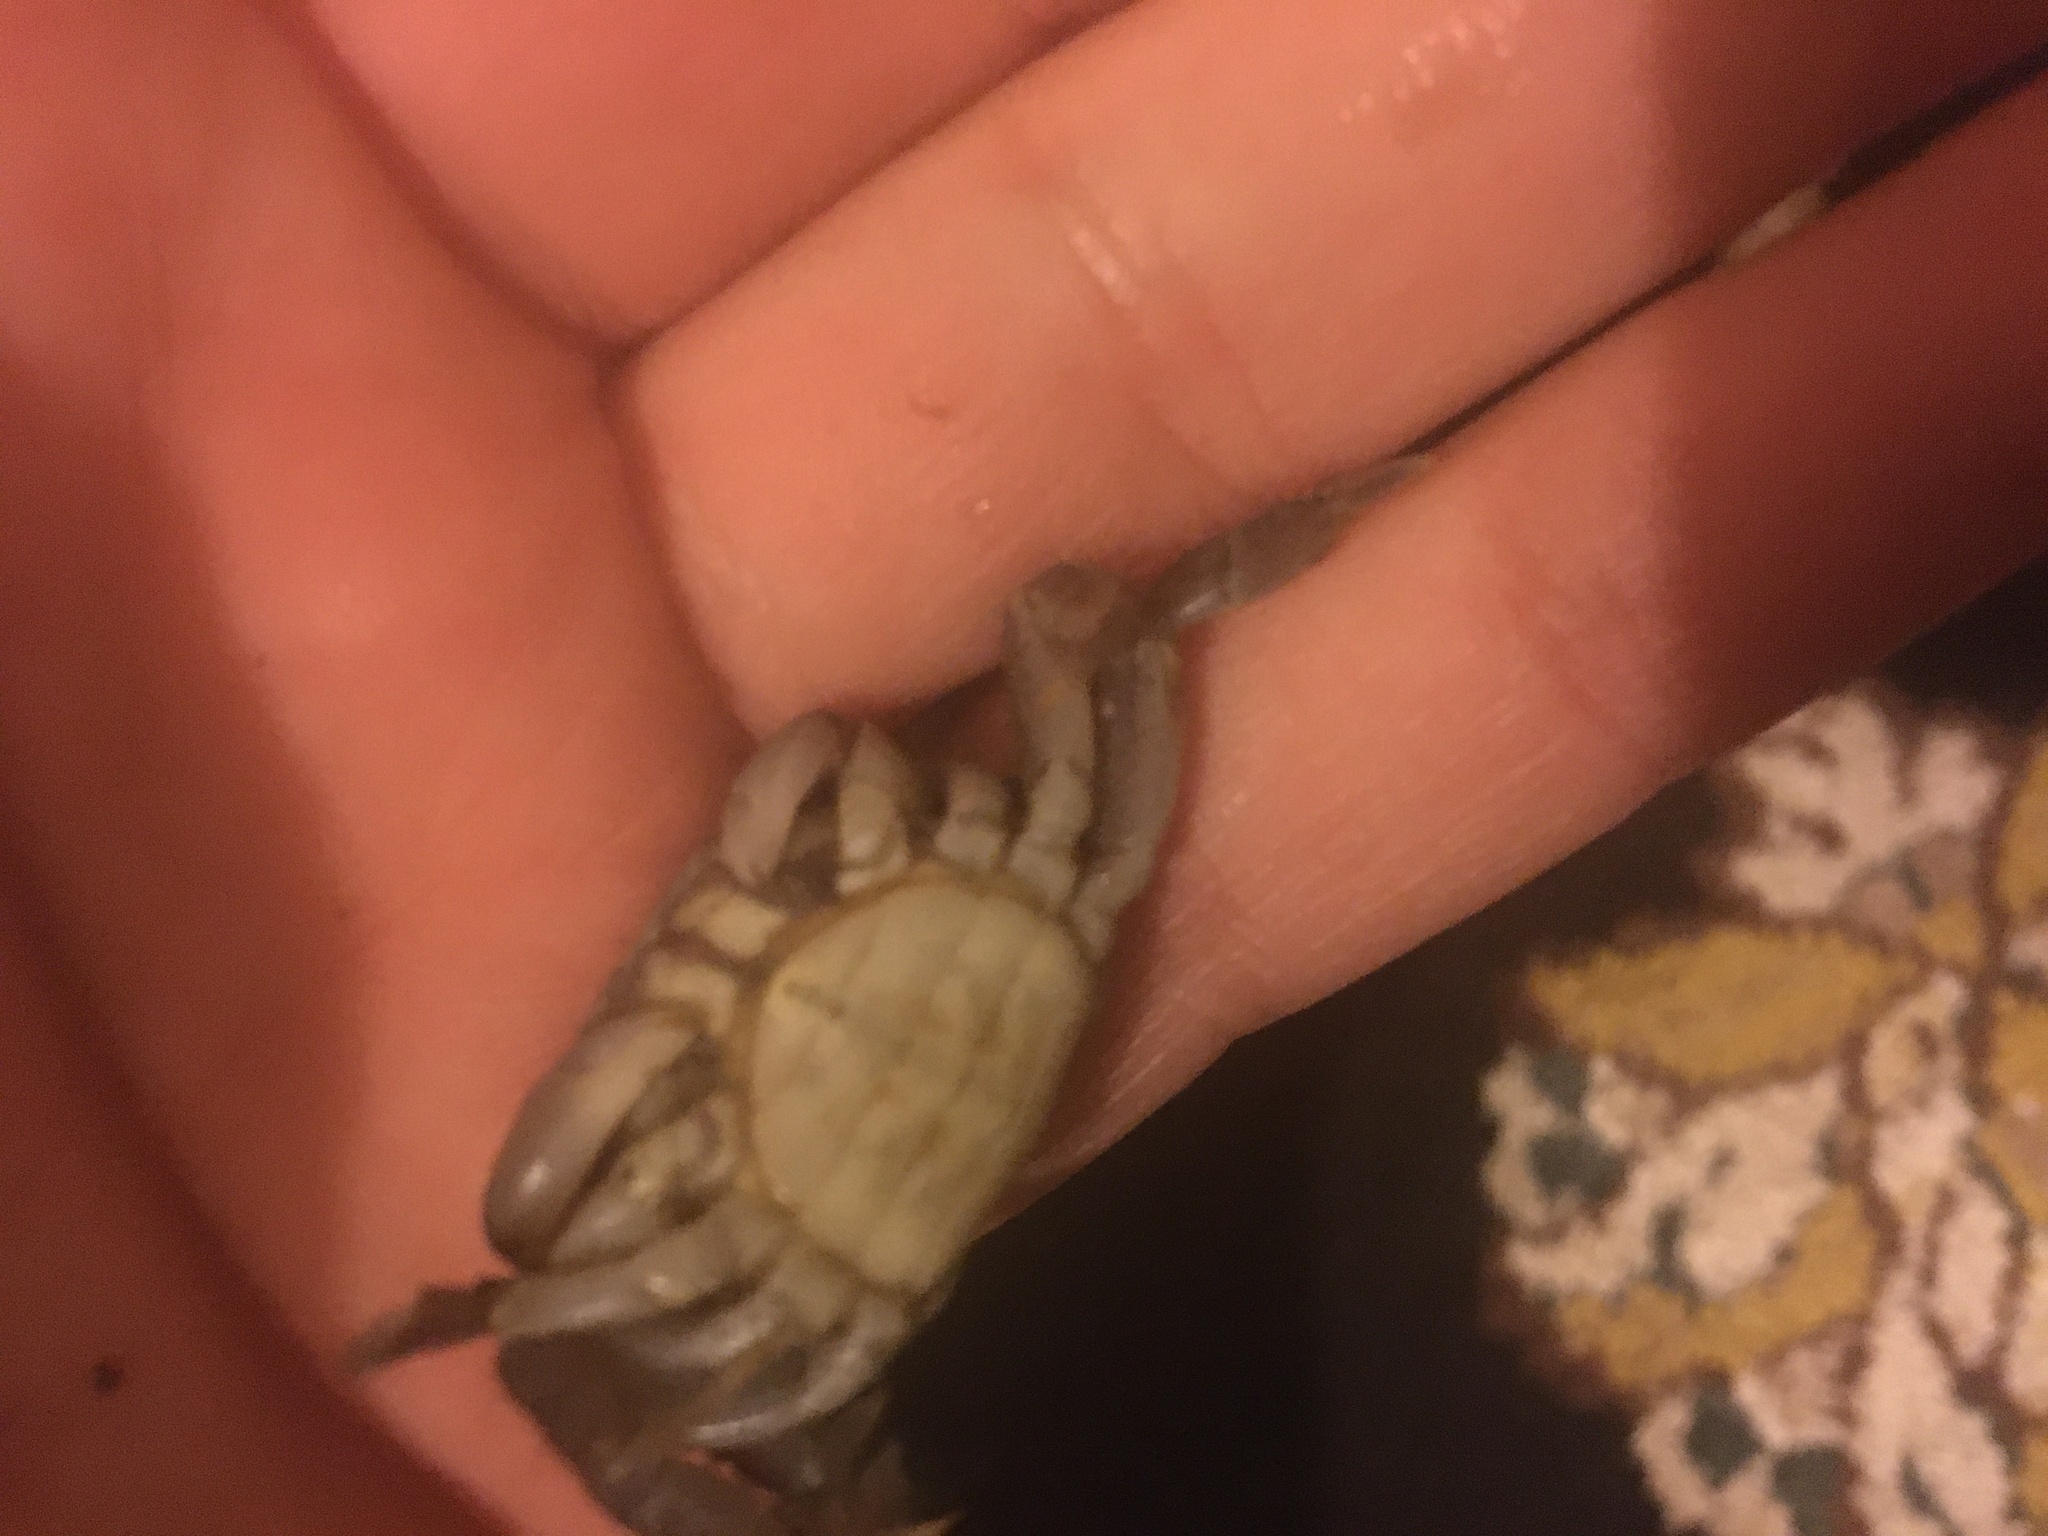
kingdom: Animalia
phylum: Arthropoda
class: Malacostraca
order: Decapoda
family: Varunidae
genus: Hemigrapsus
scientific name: Hemigrapsus oregonensis
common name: Yellow shore crab
